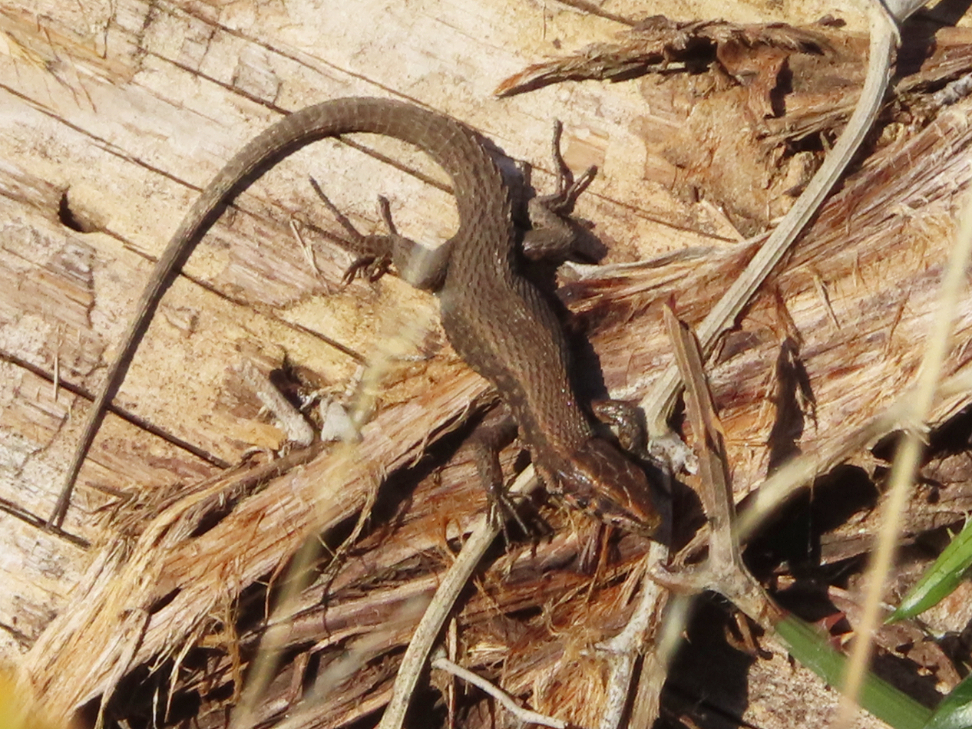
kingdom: Animalia
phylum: Chordata
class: Squamata
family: Lacertidae
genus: Algyroides
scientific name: Algyroides moreoticus
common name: Greek algyroides
